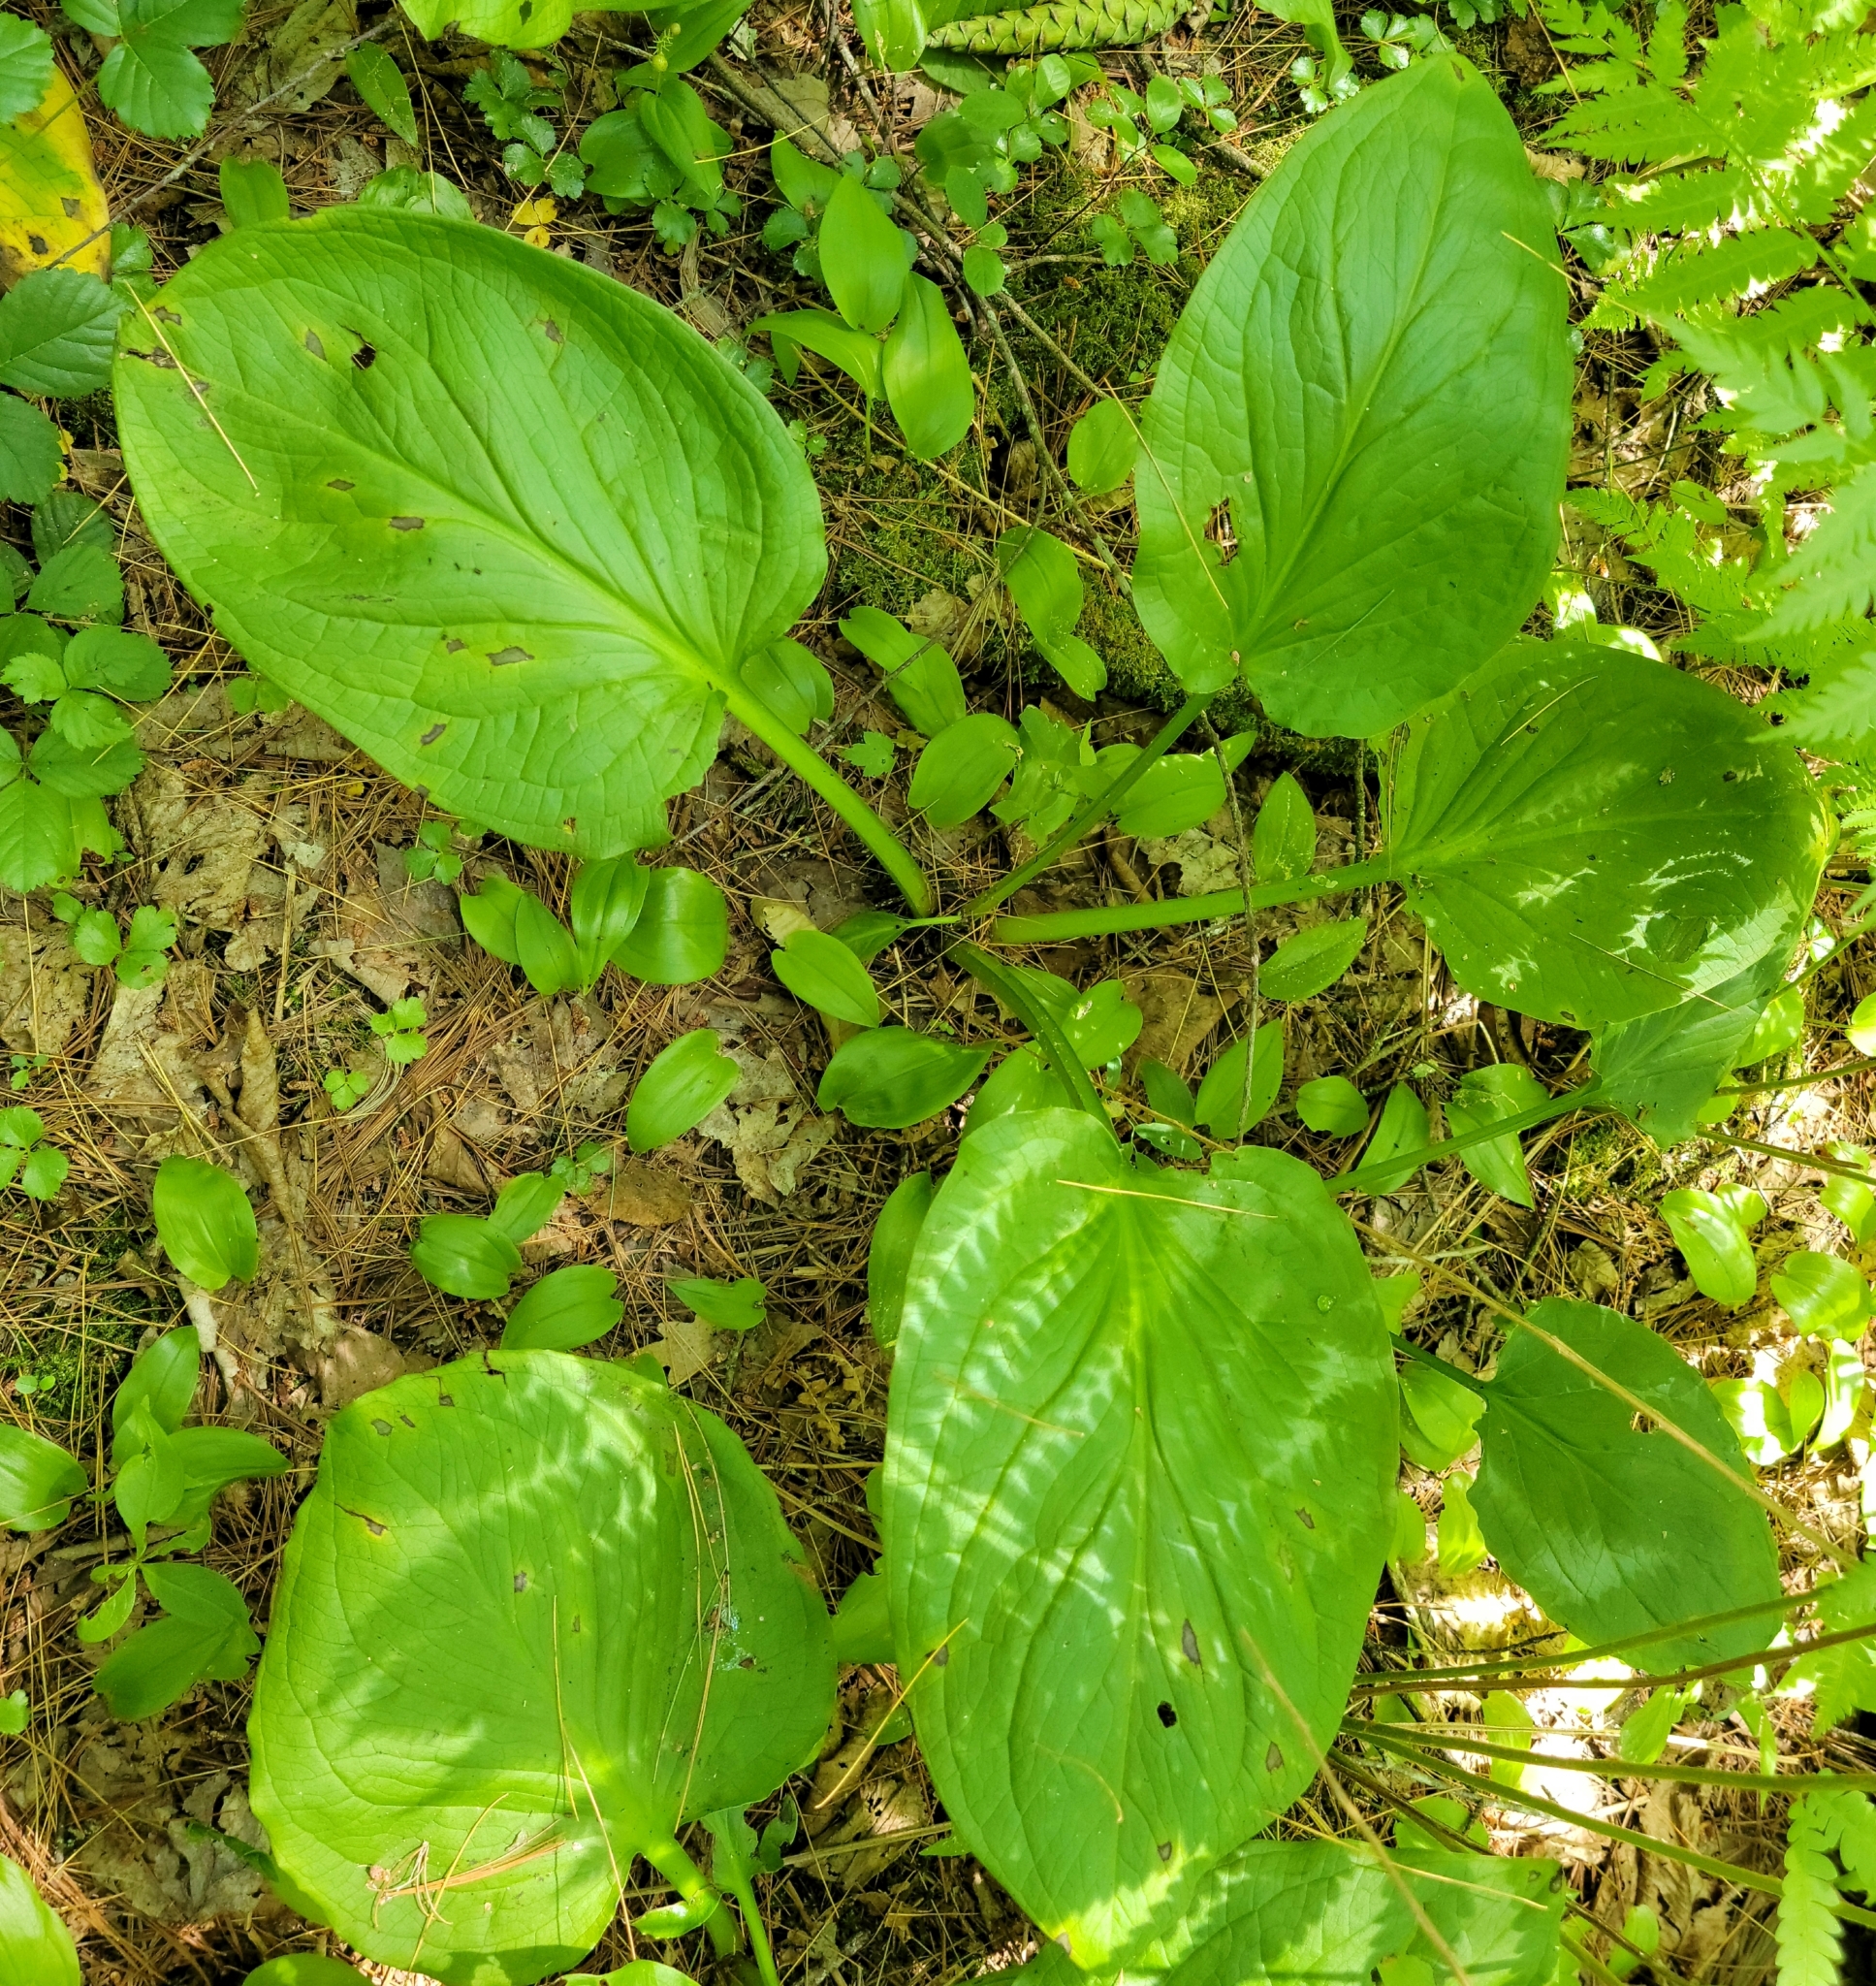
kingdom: Plantae
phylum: Tracheophyta
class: Liliopsida
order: Alismatales
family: Araceae
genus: Symplocarpus
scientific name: Symplocarpus foetidus
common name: Eastern skunk cabbage
